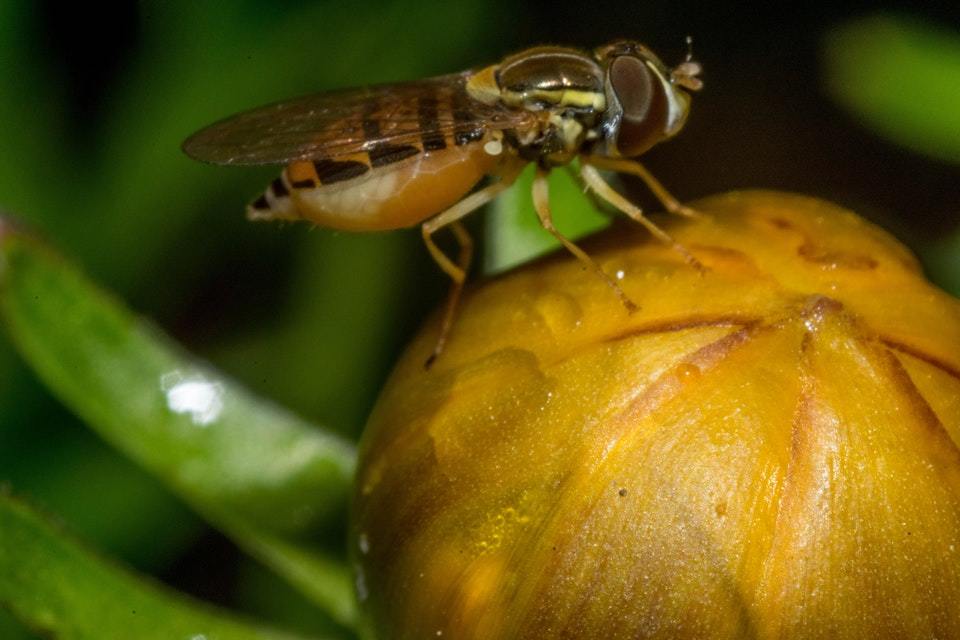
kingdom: Animalia
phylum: Arthropoda
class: Insecta
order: Diptera
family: Syrphidae
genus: Toxomerus
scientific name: Toxomerus marginatus
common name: Syrphid fly
